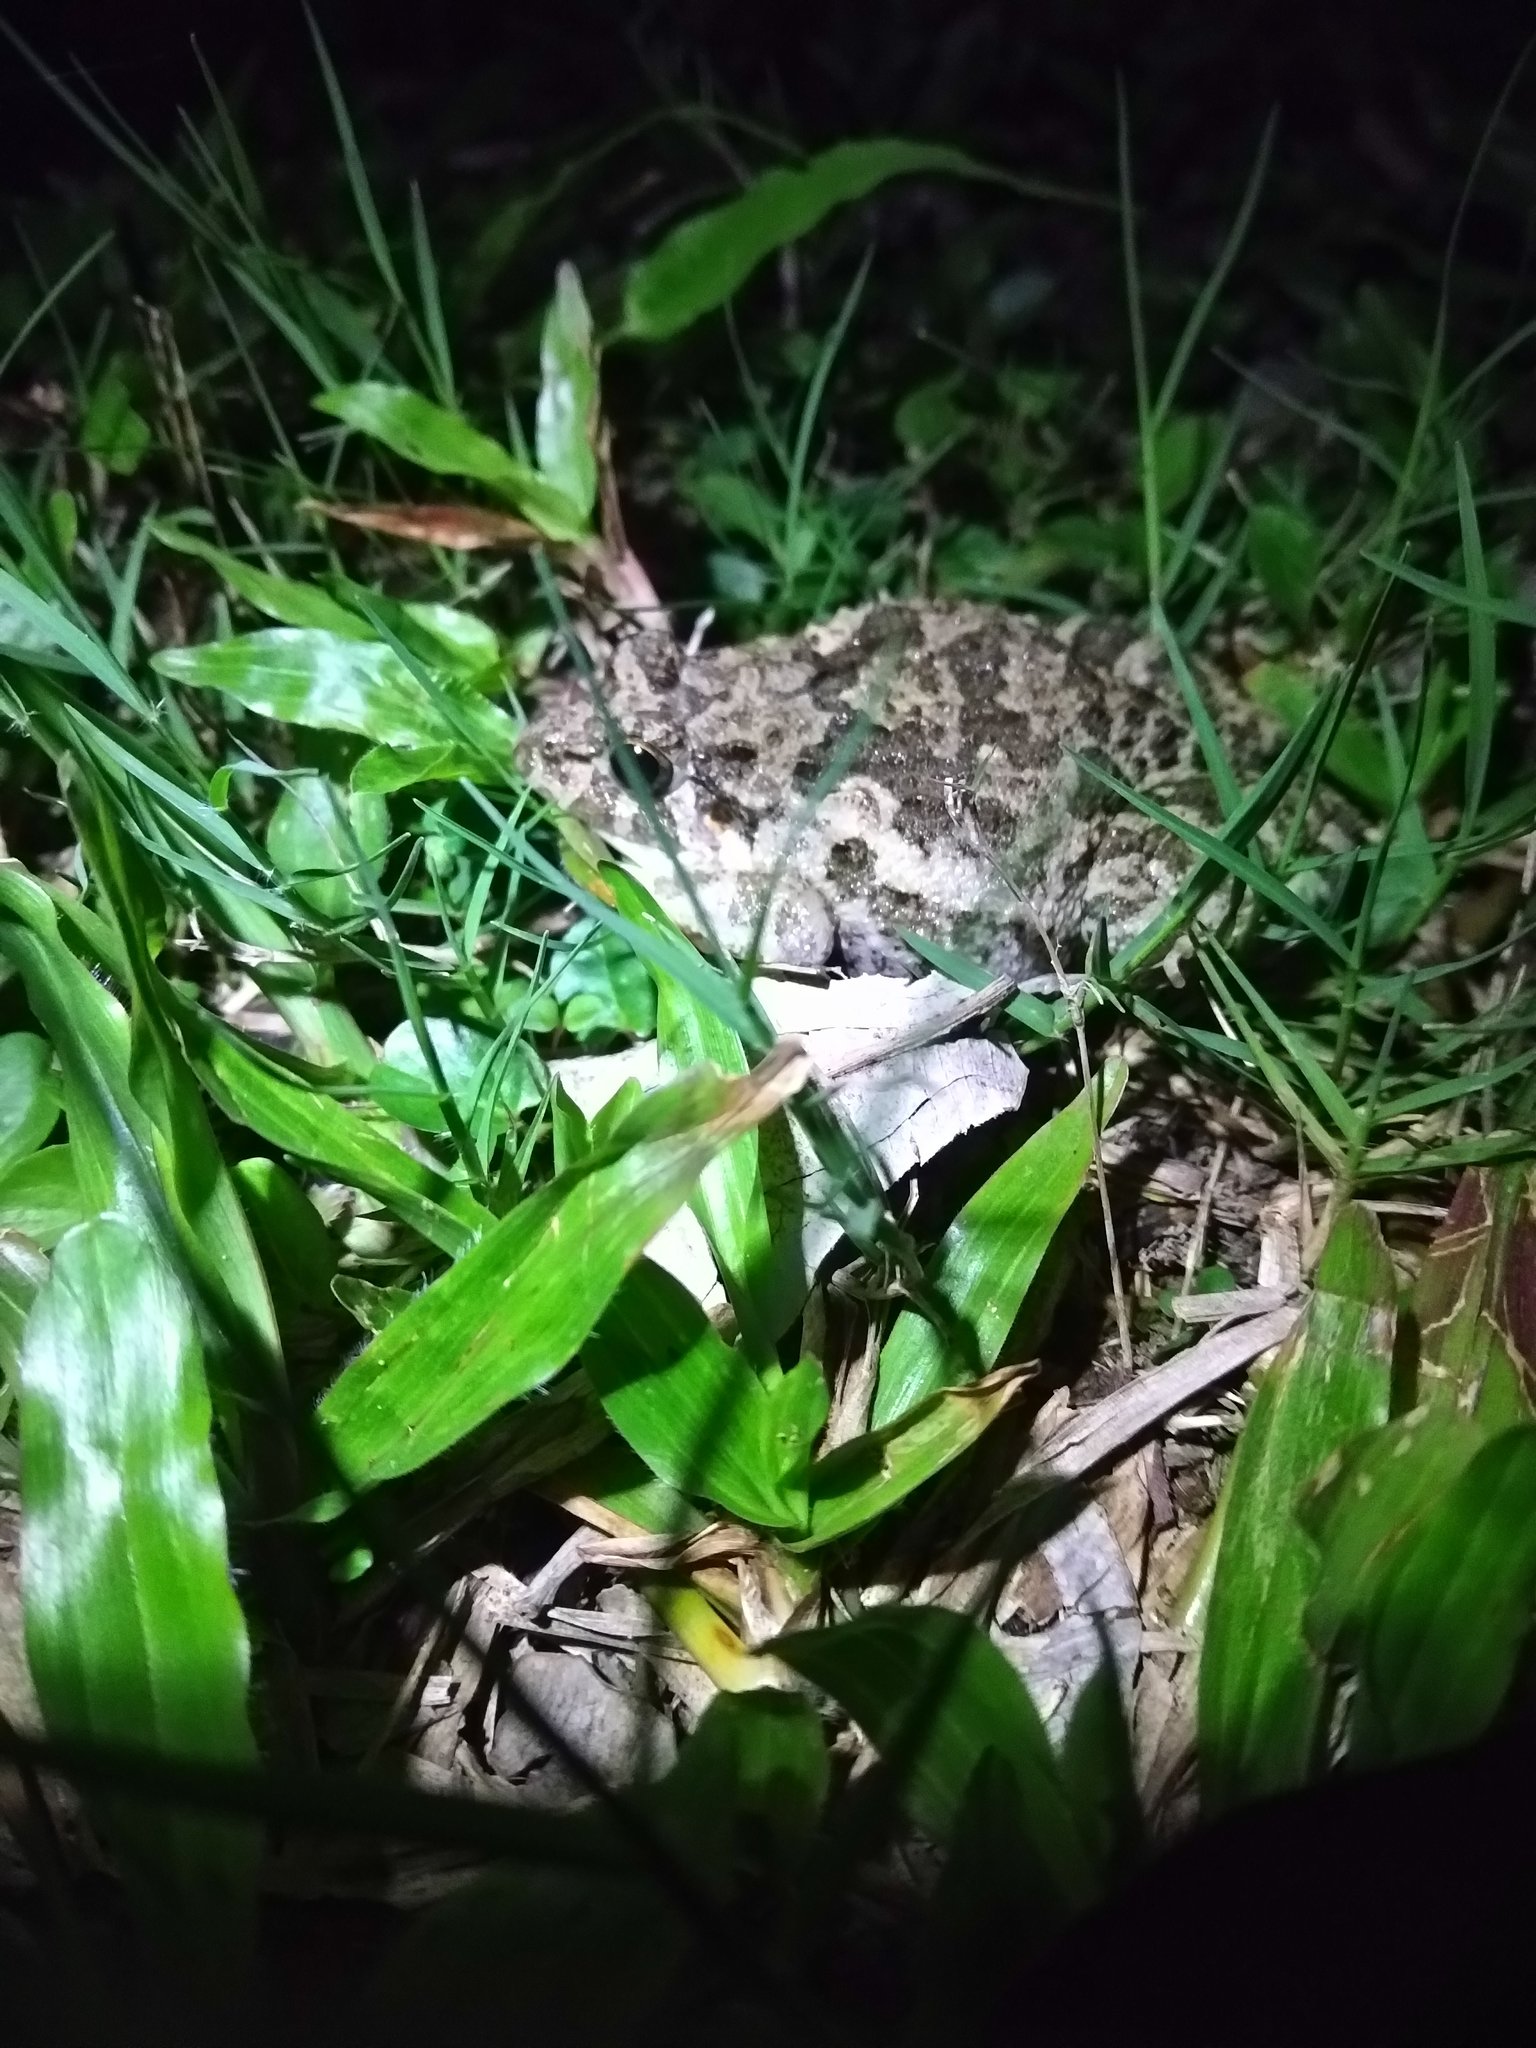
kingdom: Animalia
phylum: Chordata
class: Amphibia
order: Anura
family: Dicroglossidae
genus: Fejervarya
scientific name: Fejervarya limnocharis
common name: Asian grass frog/common pond frog/field frog/grass frog/indian rice frog
